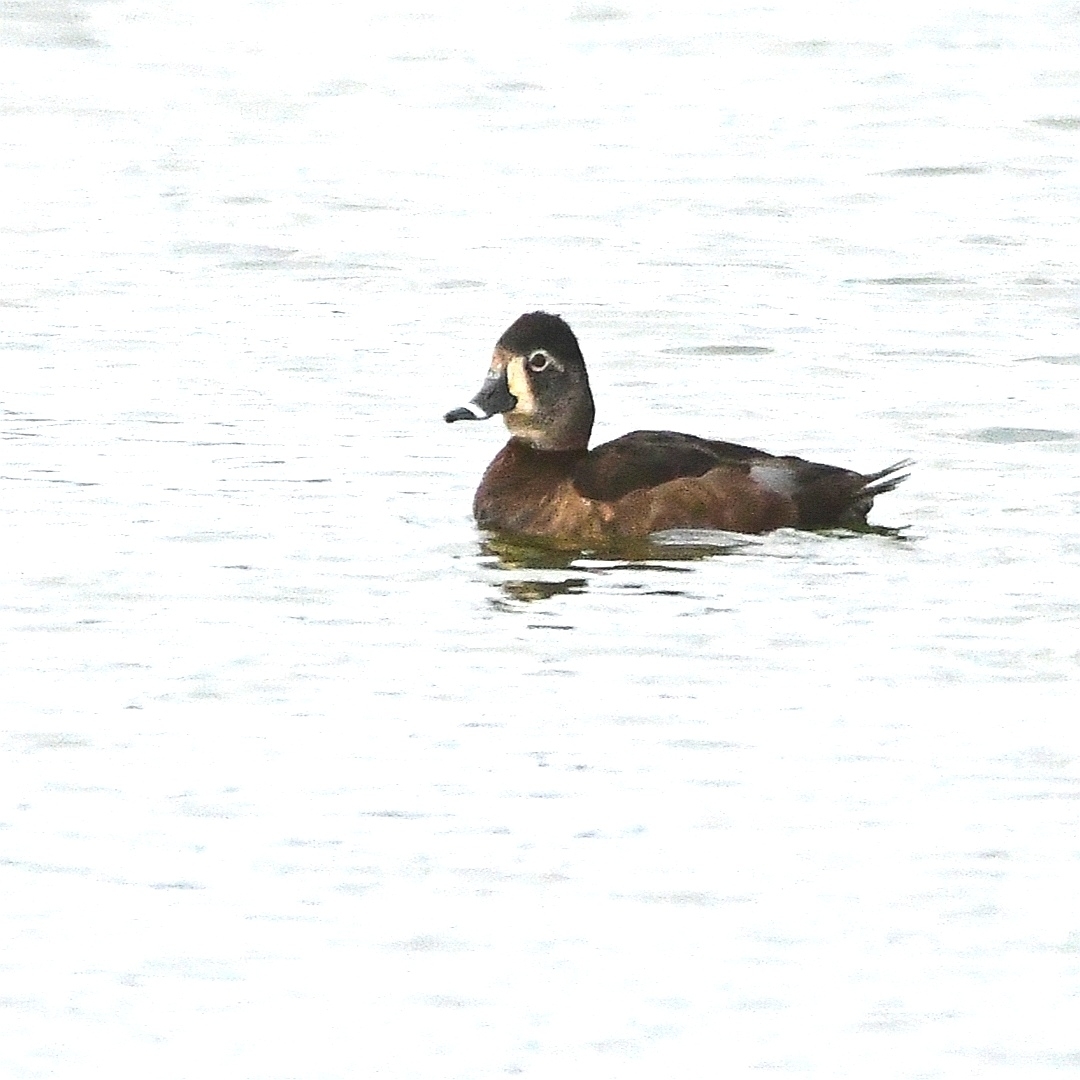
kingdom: Animalia
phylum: Chordata
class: Aves
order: Anseriformes
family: Anatidae
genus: Aythya
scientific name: Aythya collaris
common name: Ring-necked duck
